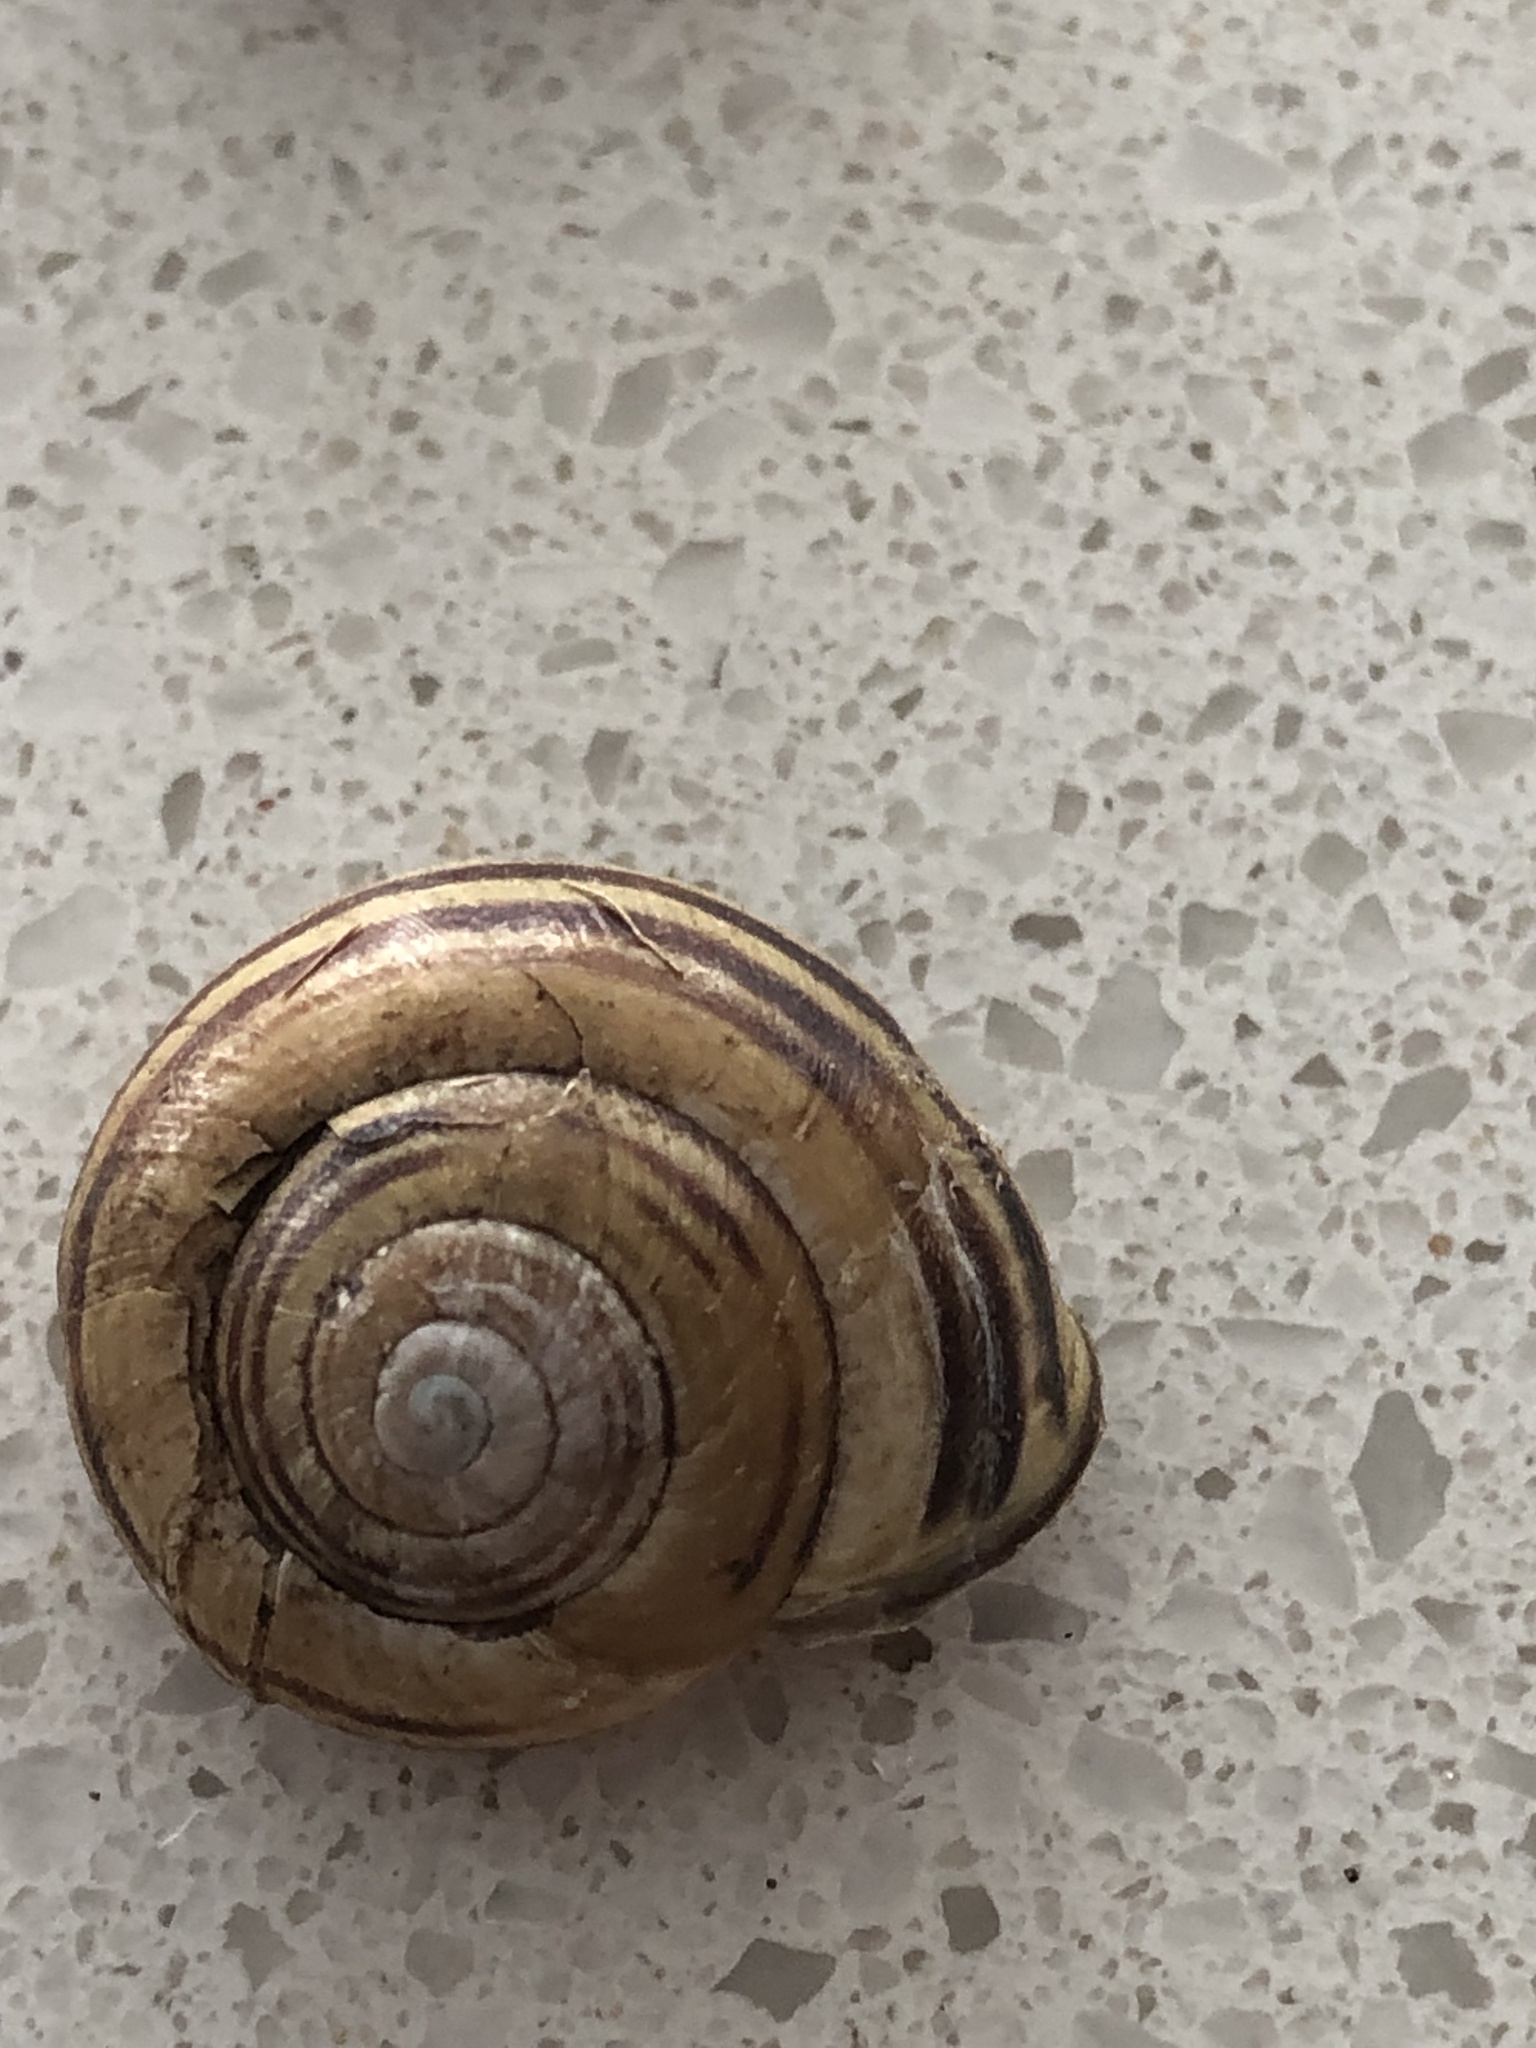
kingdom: Animalia
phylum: Mollusca
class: Gastropoda
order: Stylommatophora
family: Helicidae
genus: Cepaea
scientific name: Cepaea nemoralis
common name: Grovesnail
